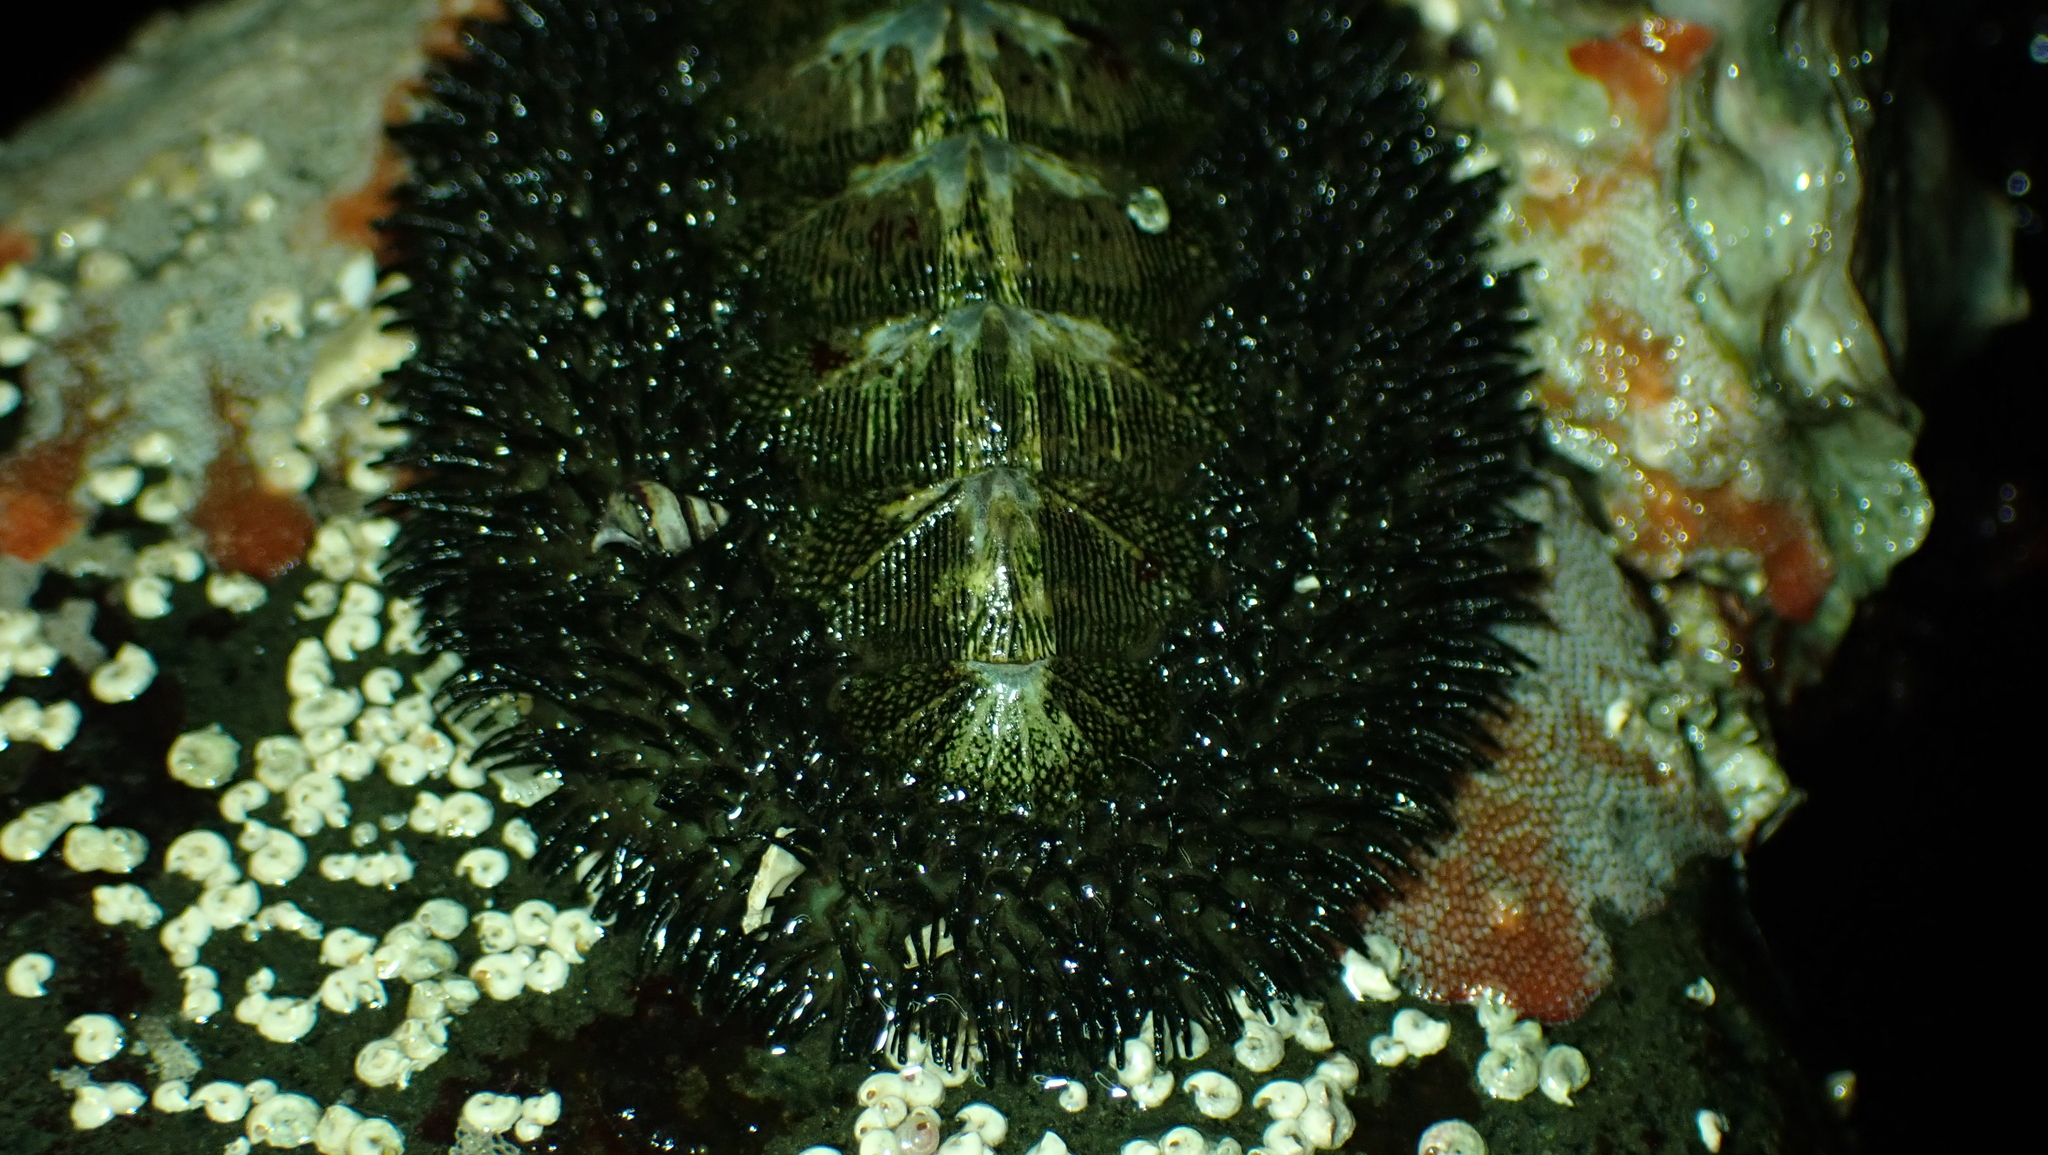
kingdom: Animalia
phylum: Mollusca
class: Polyplacophora
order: Chitonida
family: Mopaliidae
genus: Mopalia
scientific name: Mopalia muscosa
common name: Mossy chiton
